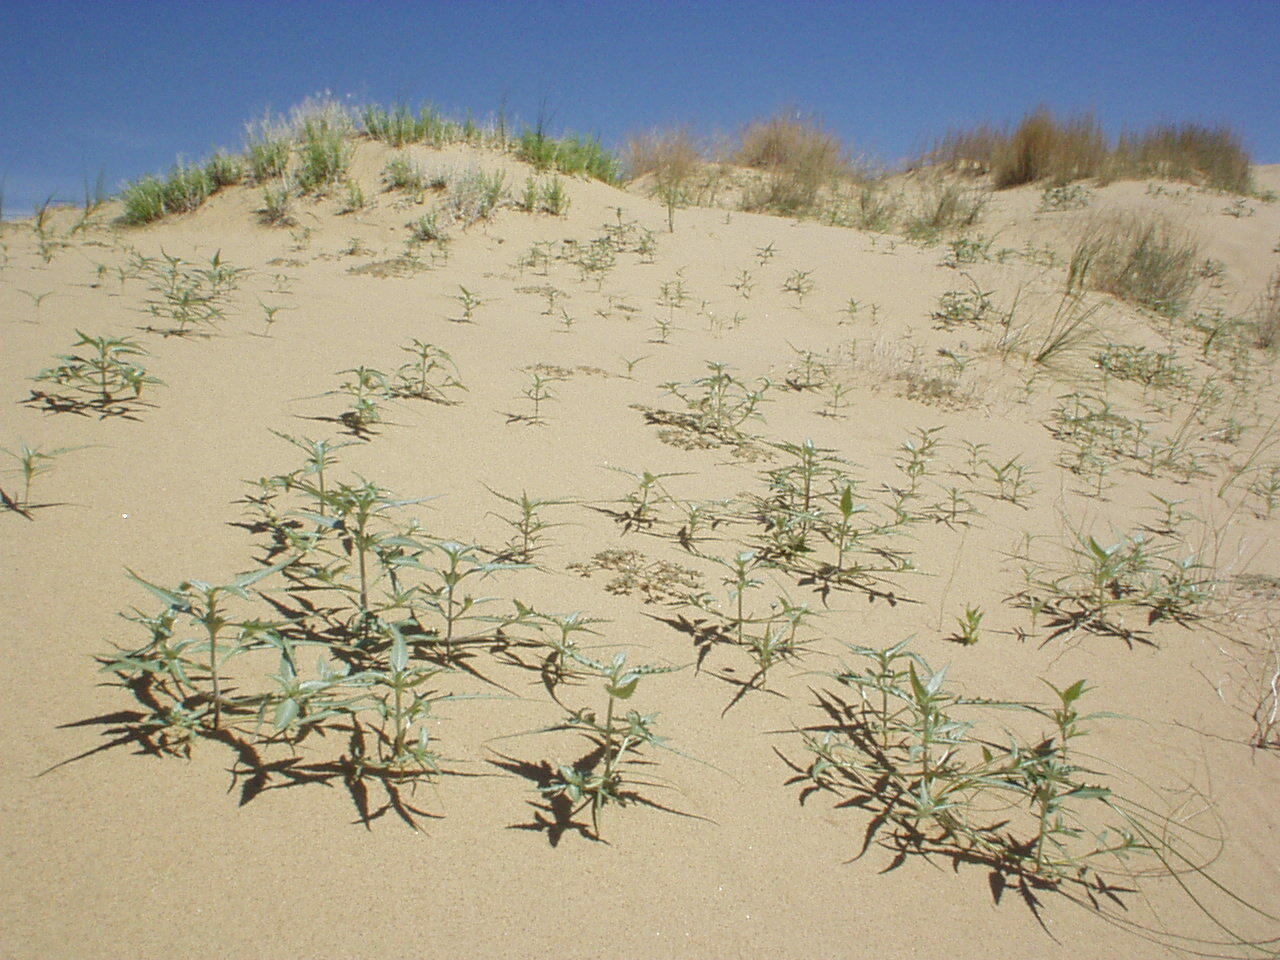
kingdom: Plantae
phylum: Tracheophyta
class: Magnoliopsida
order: Asterales
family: Asteraceae
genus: Dicoria
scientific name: Dicoria canescens
